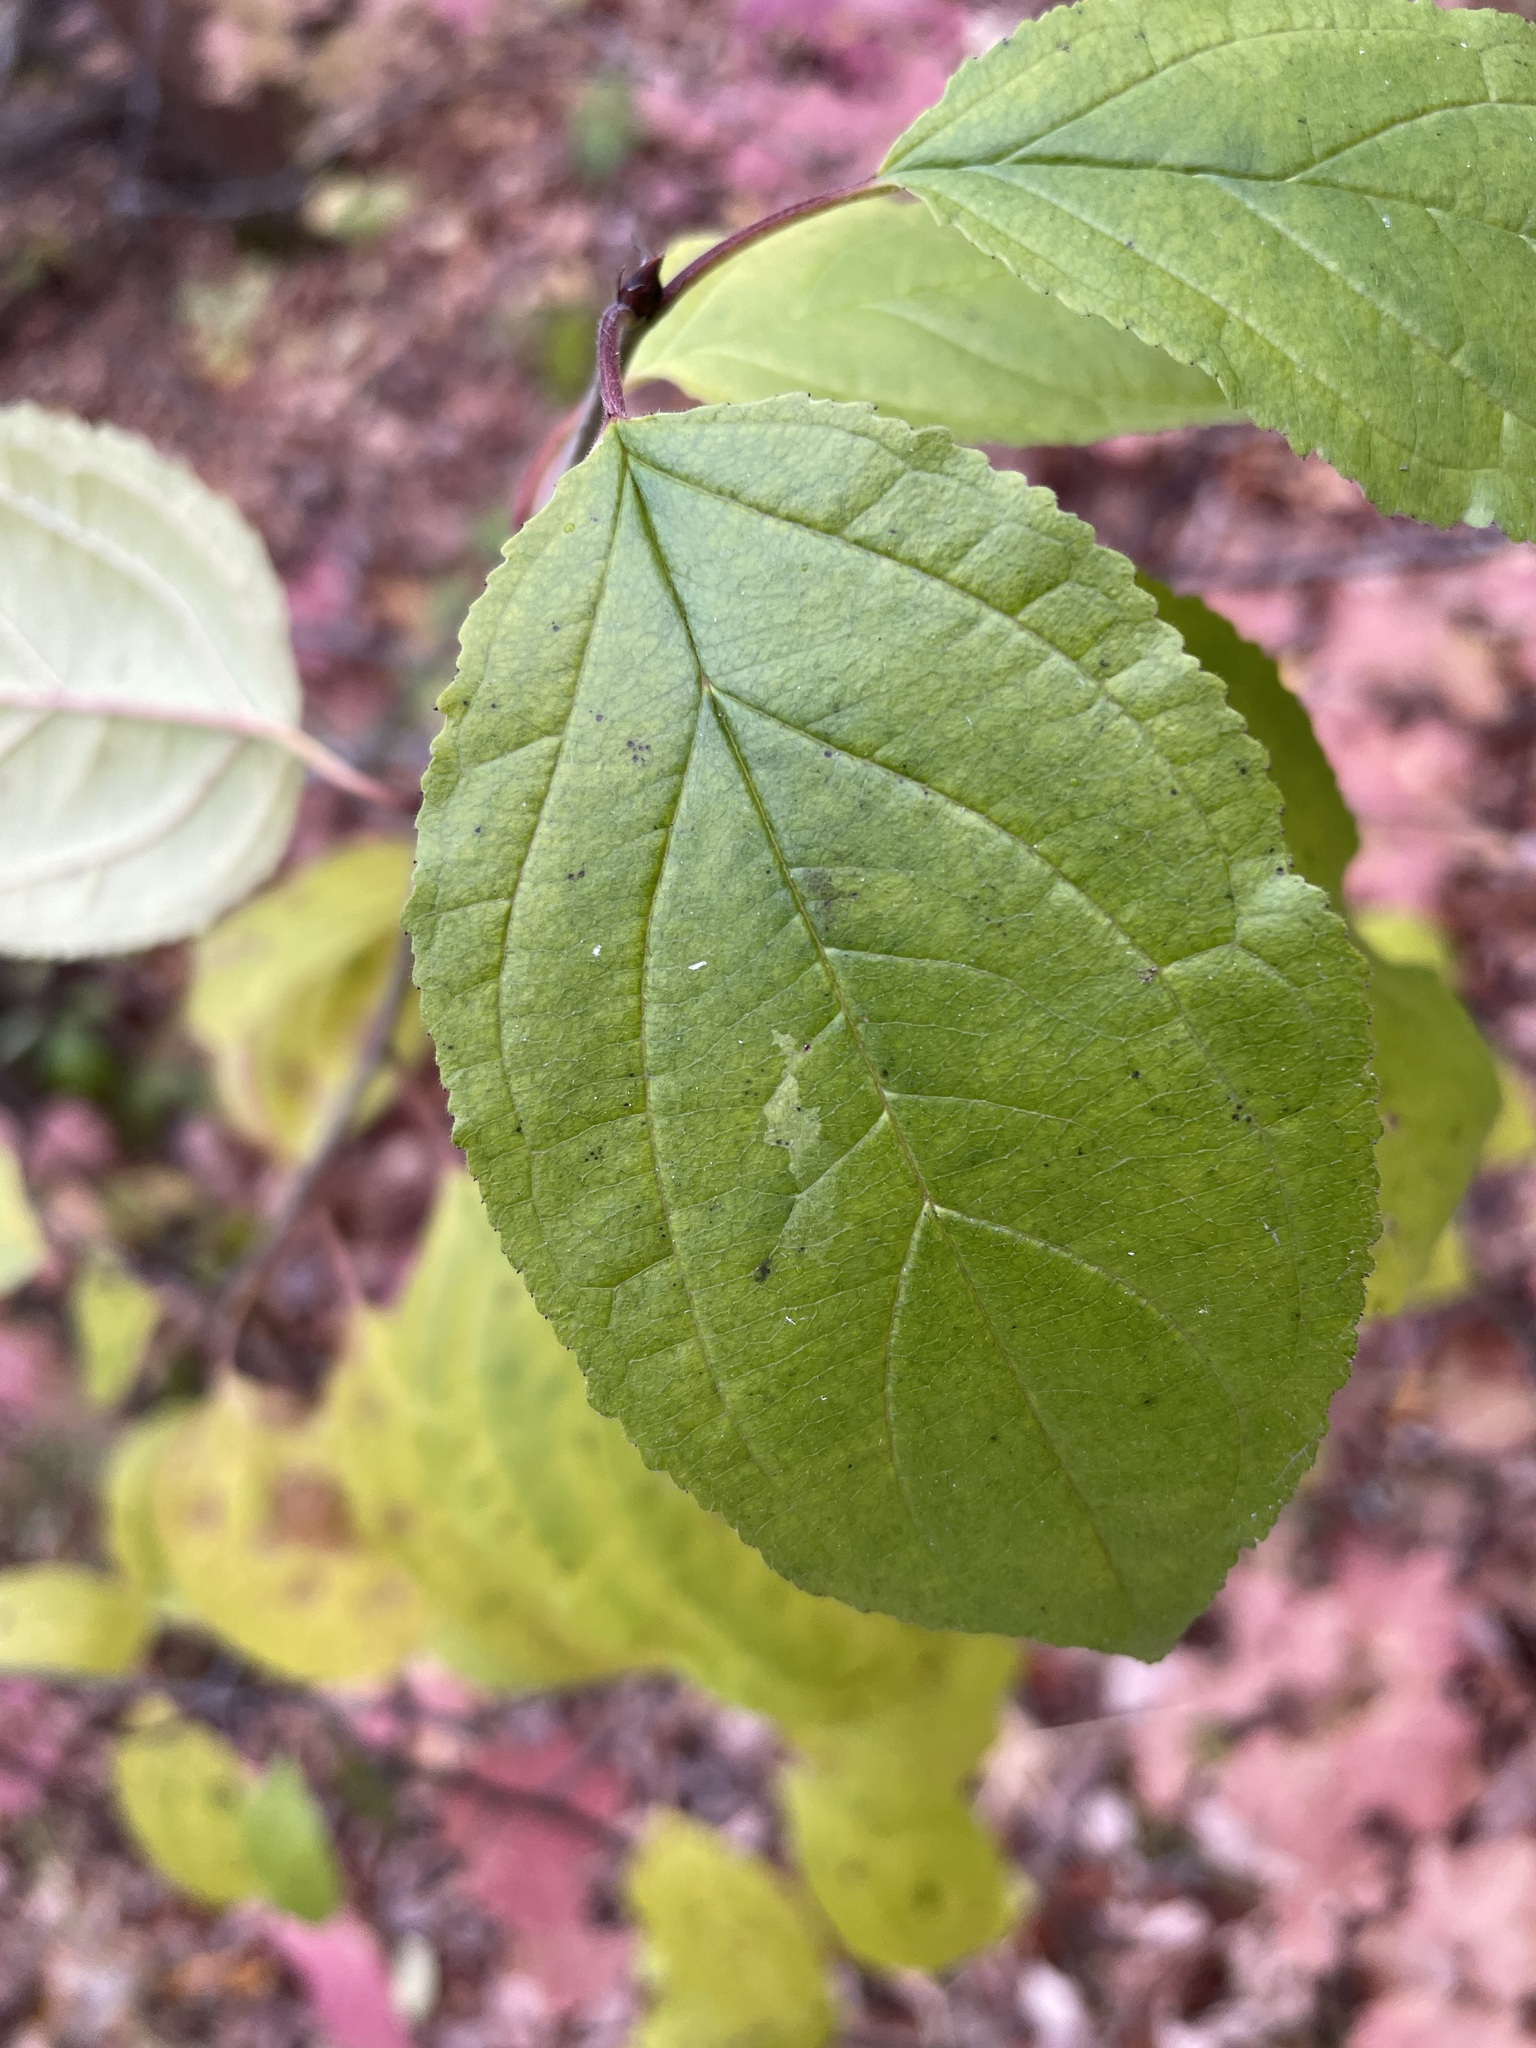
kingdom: Plantae
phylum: Tracheophyta
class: Magnoliopsida
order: Rosales
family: Rhamnaceae
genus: Rhamnus
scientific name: Rhamnus cathartica
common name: Common buckthorn
